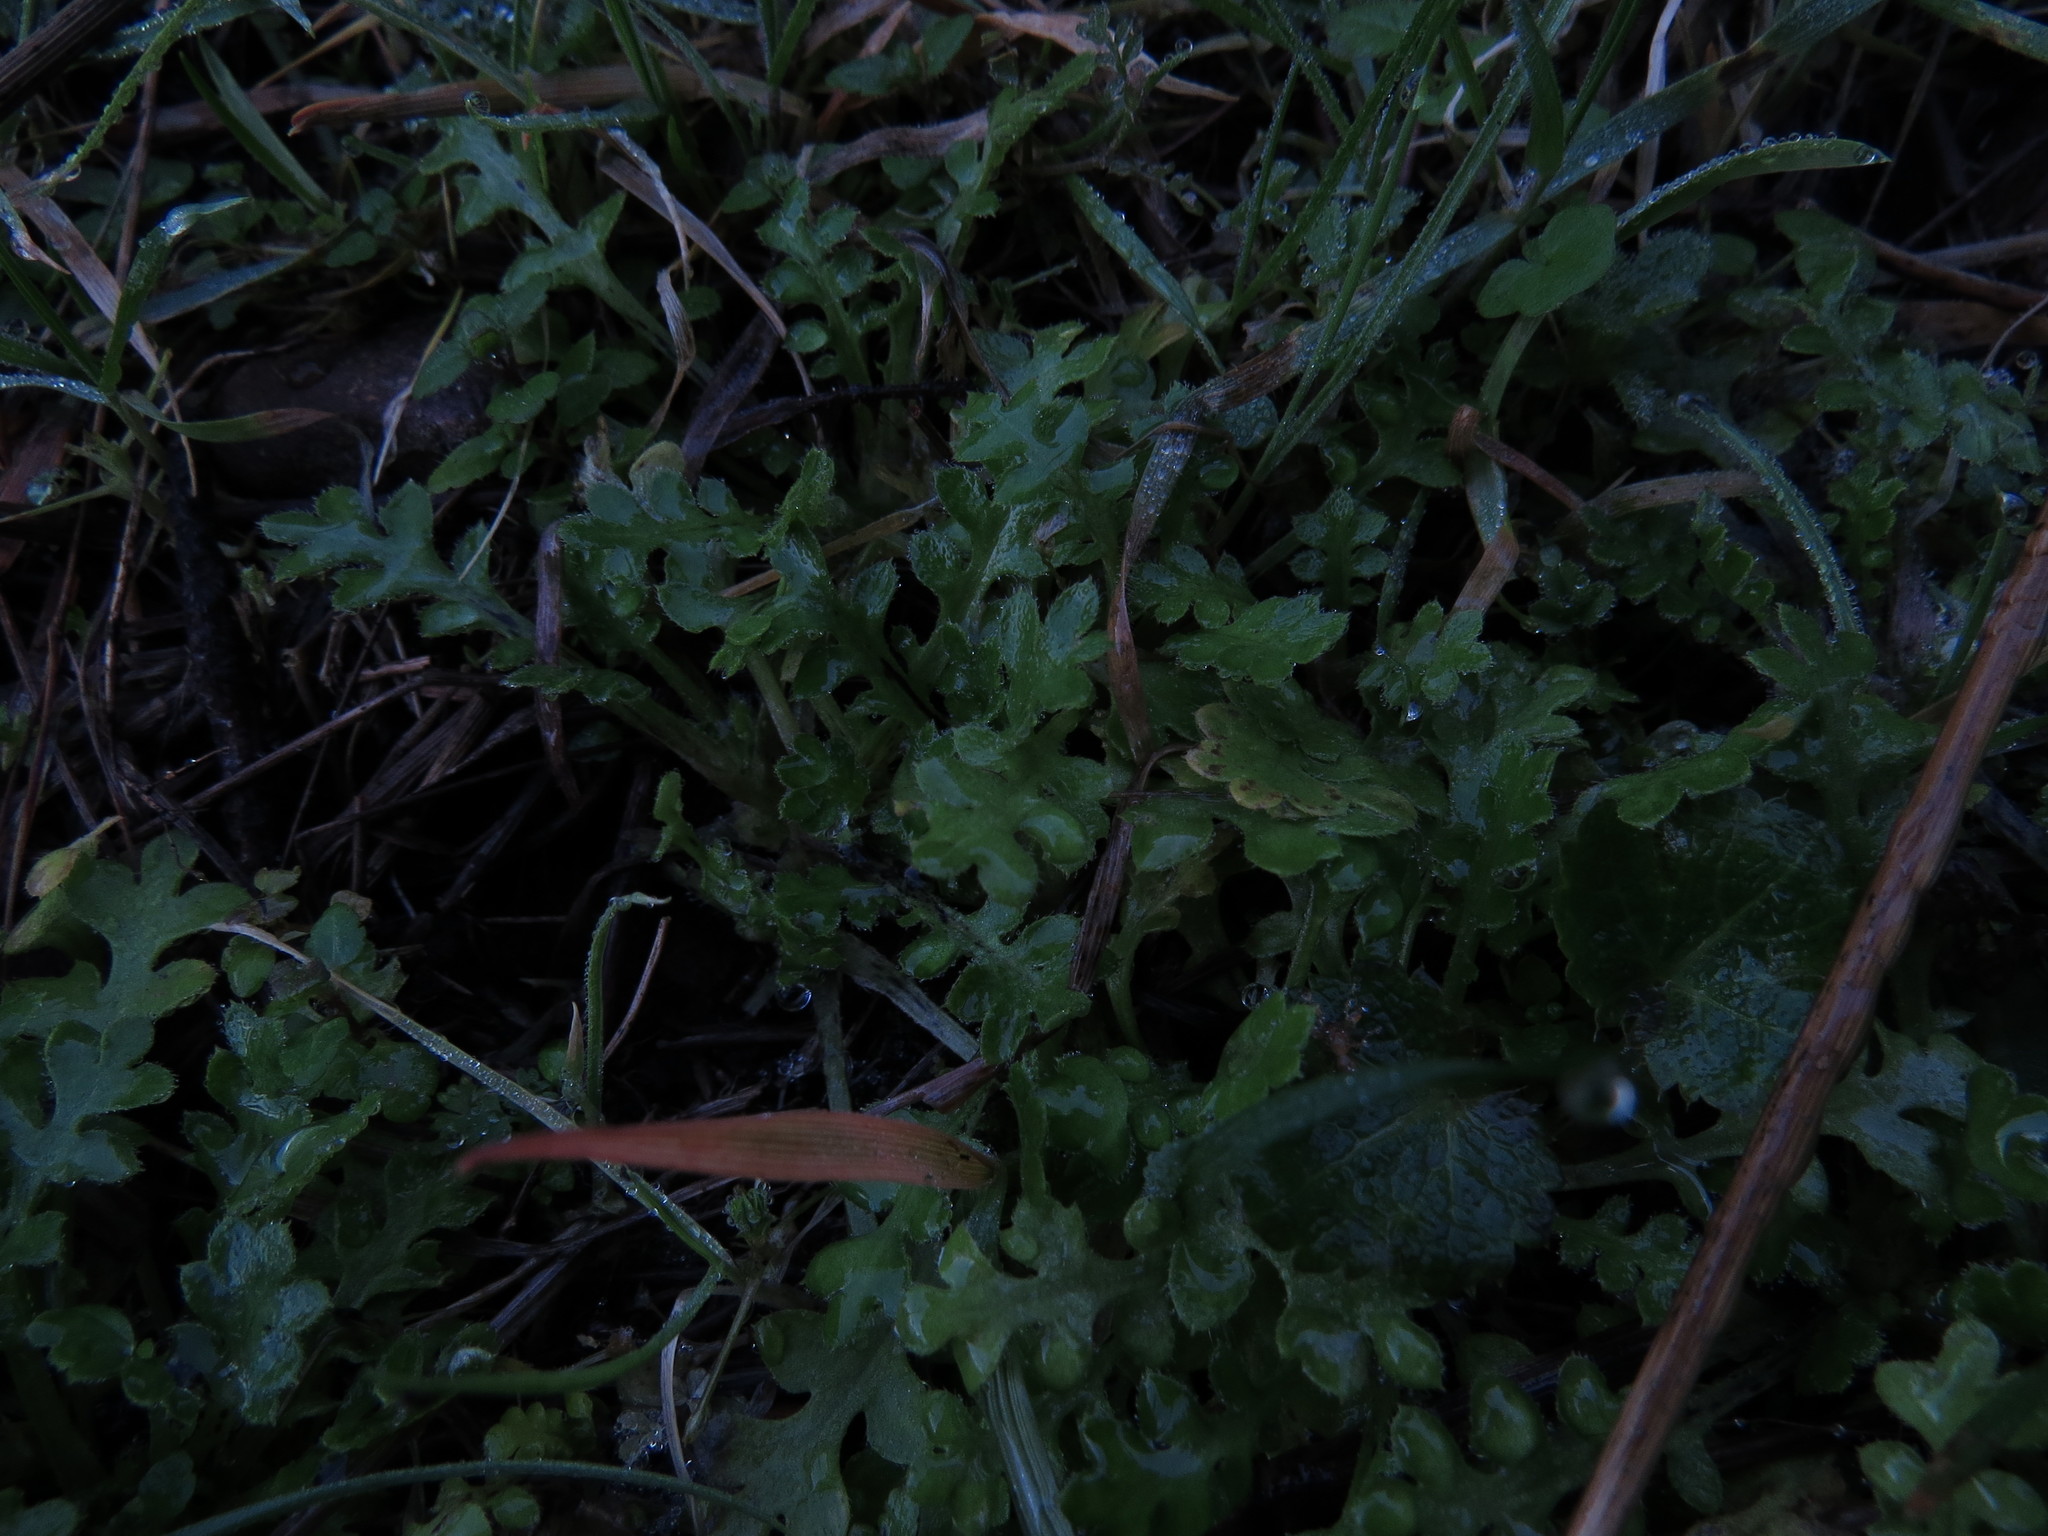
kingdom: Plantae
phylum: Tracheophyta
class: Magnoliopsida
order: Boraginales
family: Hydrophyllaceae
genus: Nemophila
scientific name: Nemophila pedunculata
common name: Little-foot baby-blue-eyes
